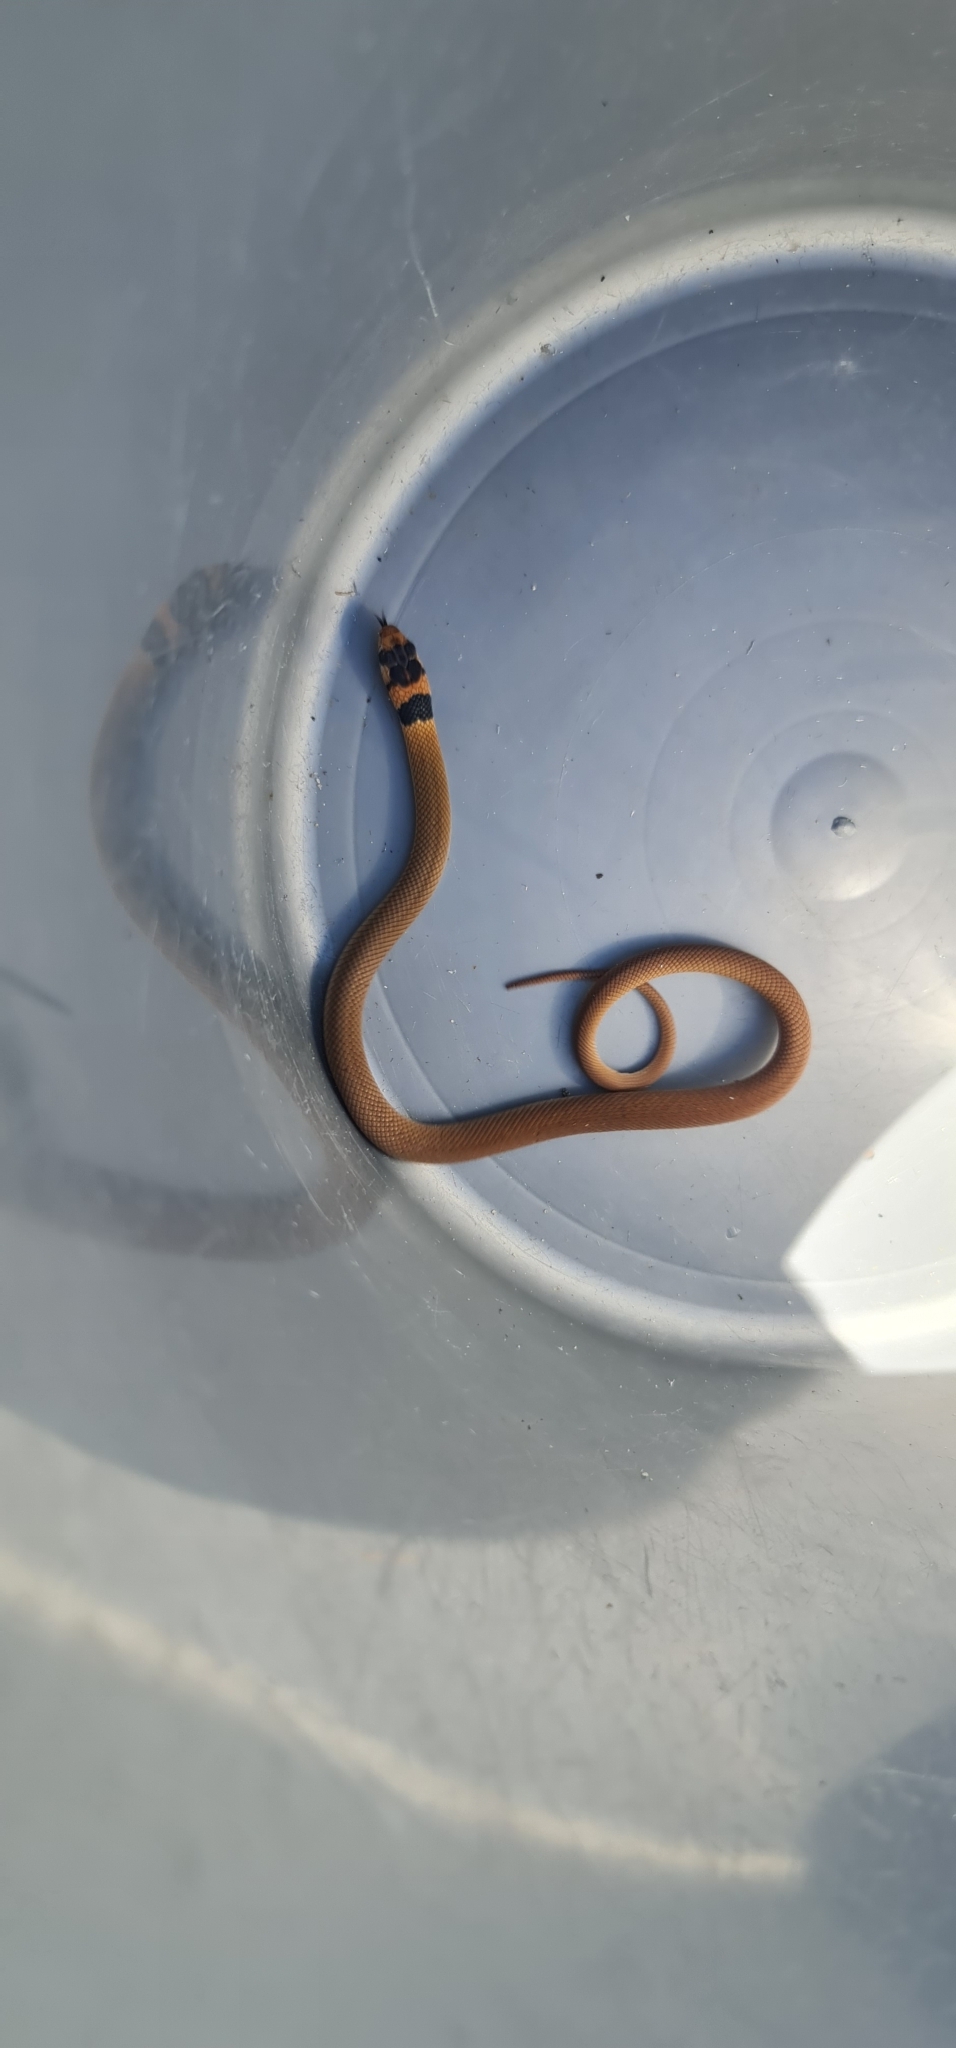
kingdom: Animalia
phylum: Chordata
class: Squamata
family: Elapidae
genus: Pseudonaja
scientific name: Pseudonaja textilis
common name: Eastern brown snake
